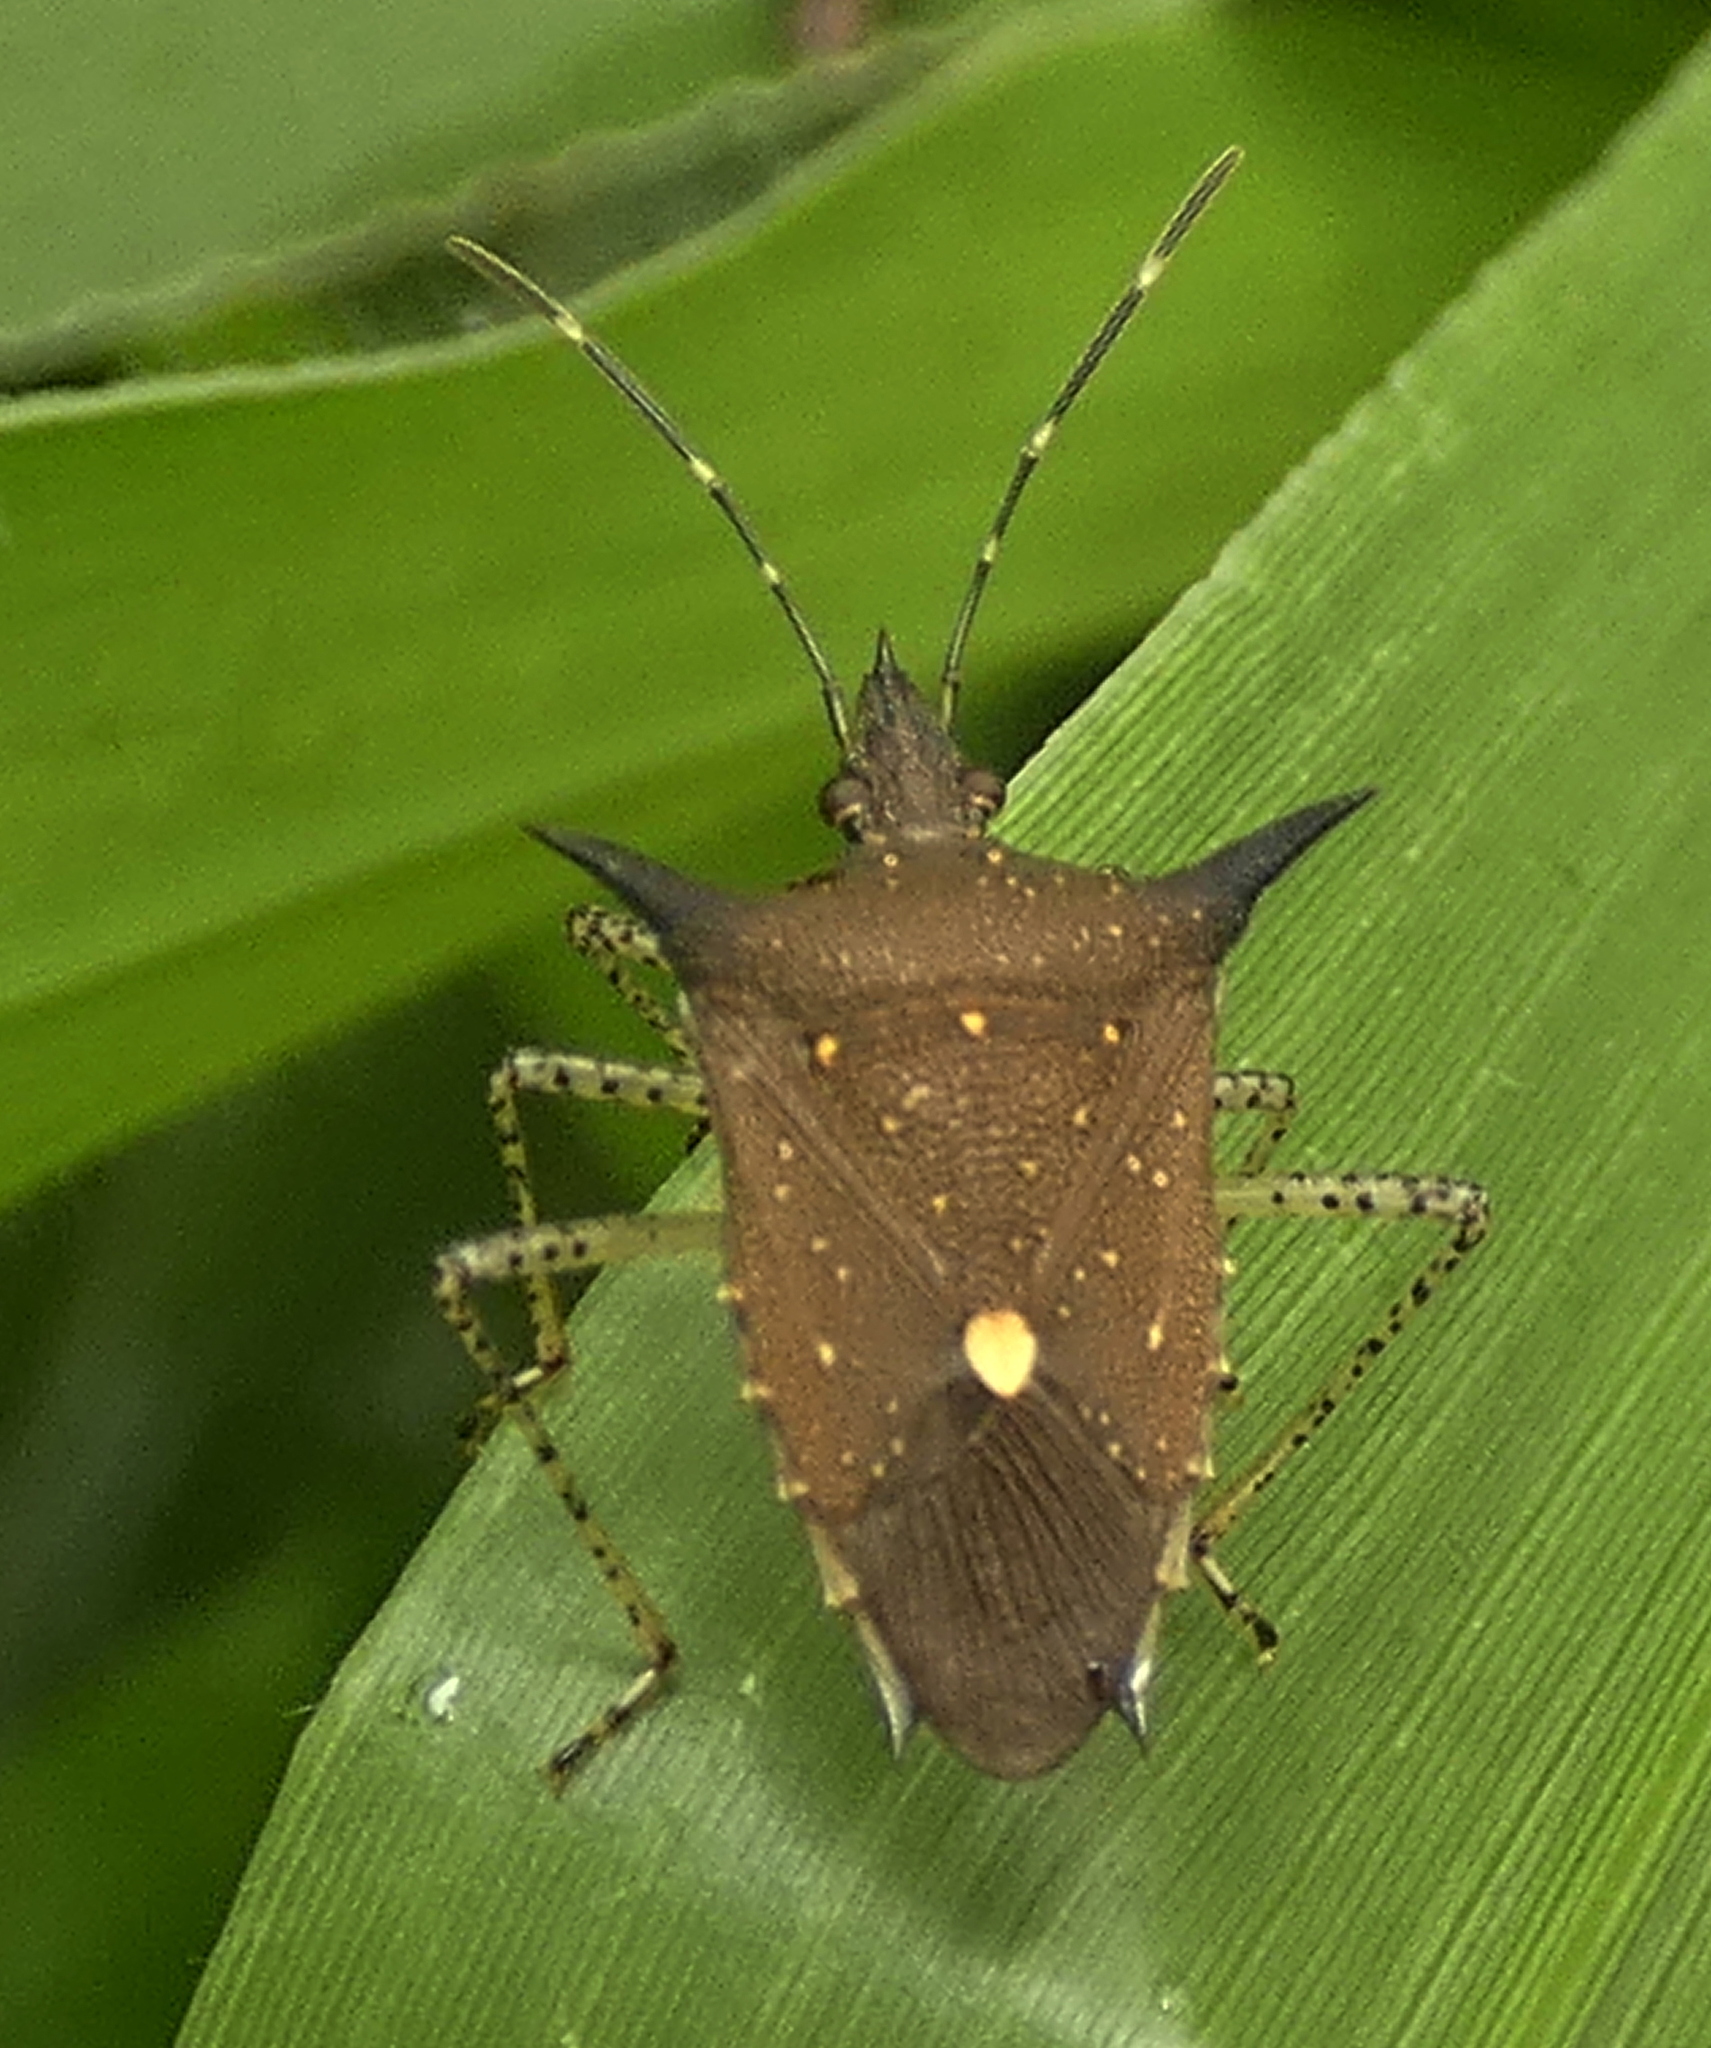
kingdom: Animalia
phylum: Arthropoda
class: Insecta
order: Hemiptera
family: Pentatomidae
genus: Proxys
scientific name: Proxys albopunctulatus
